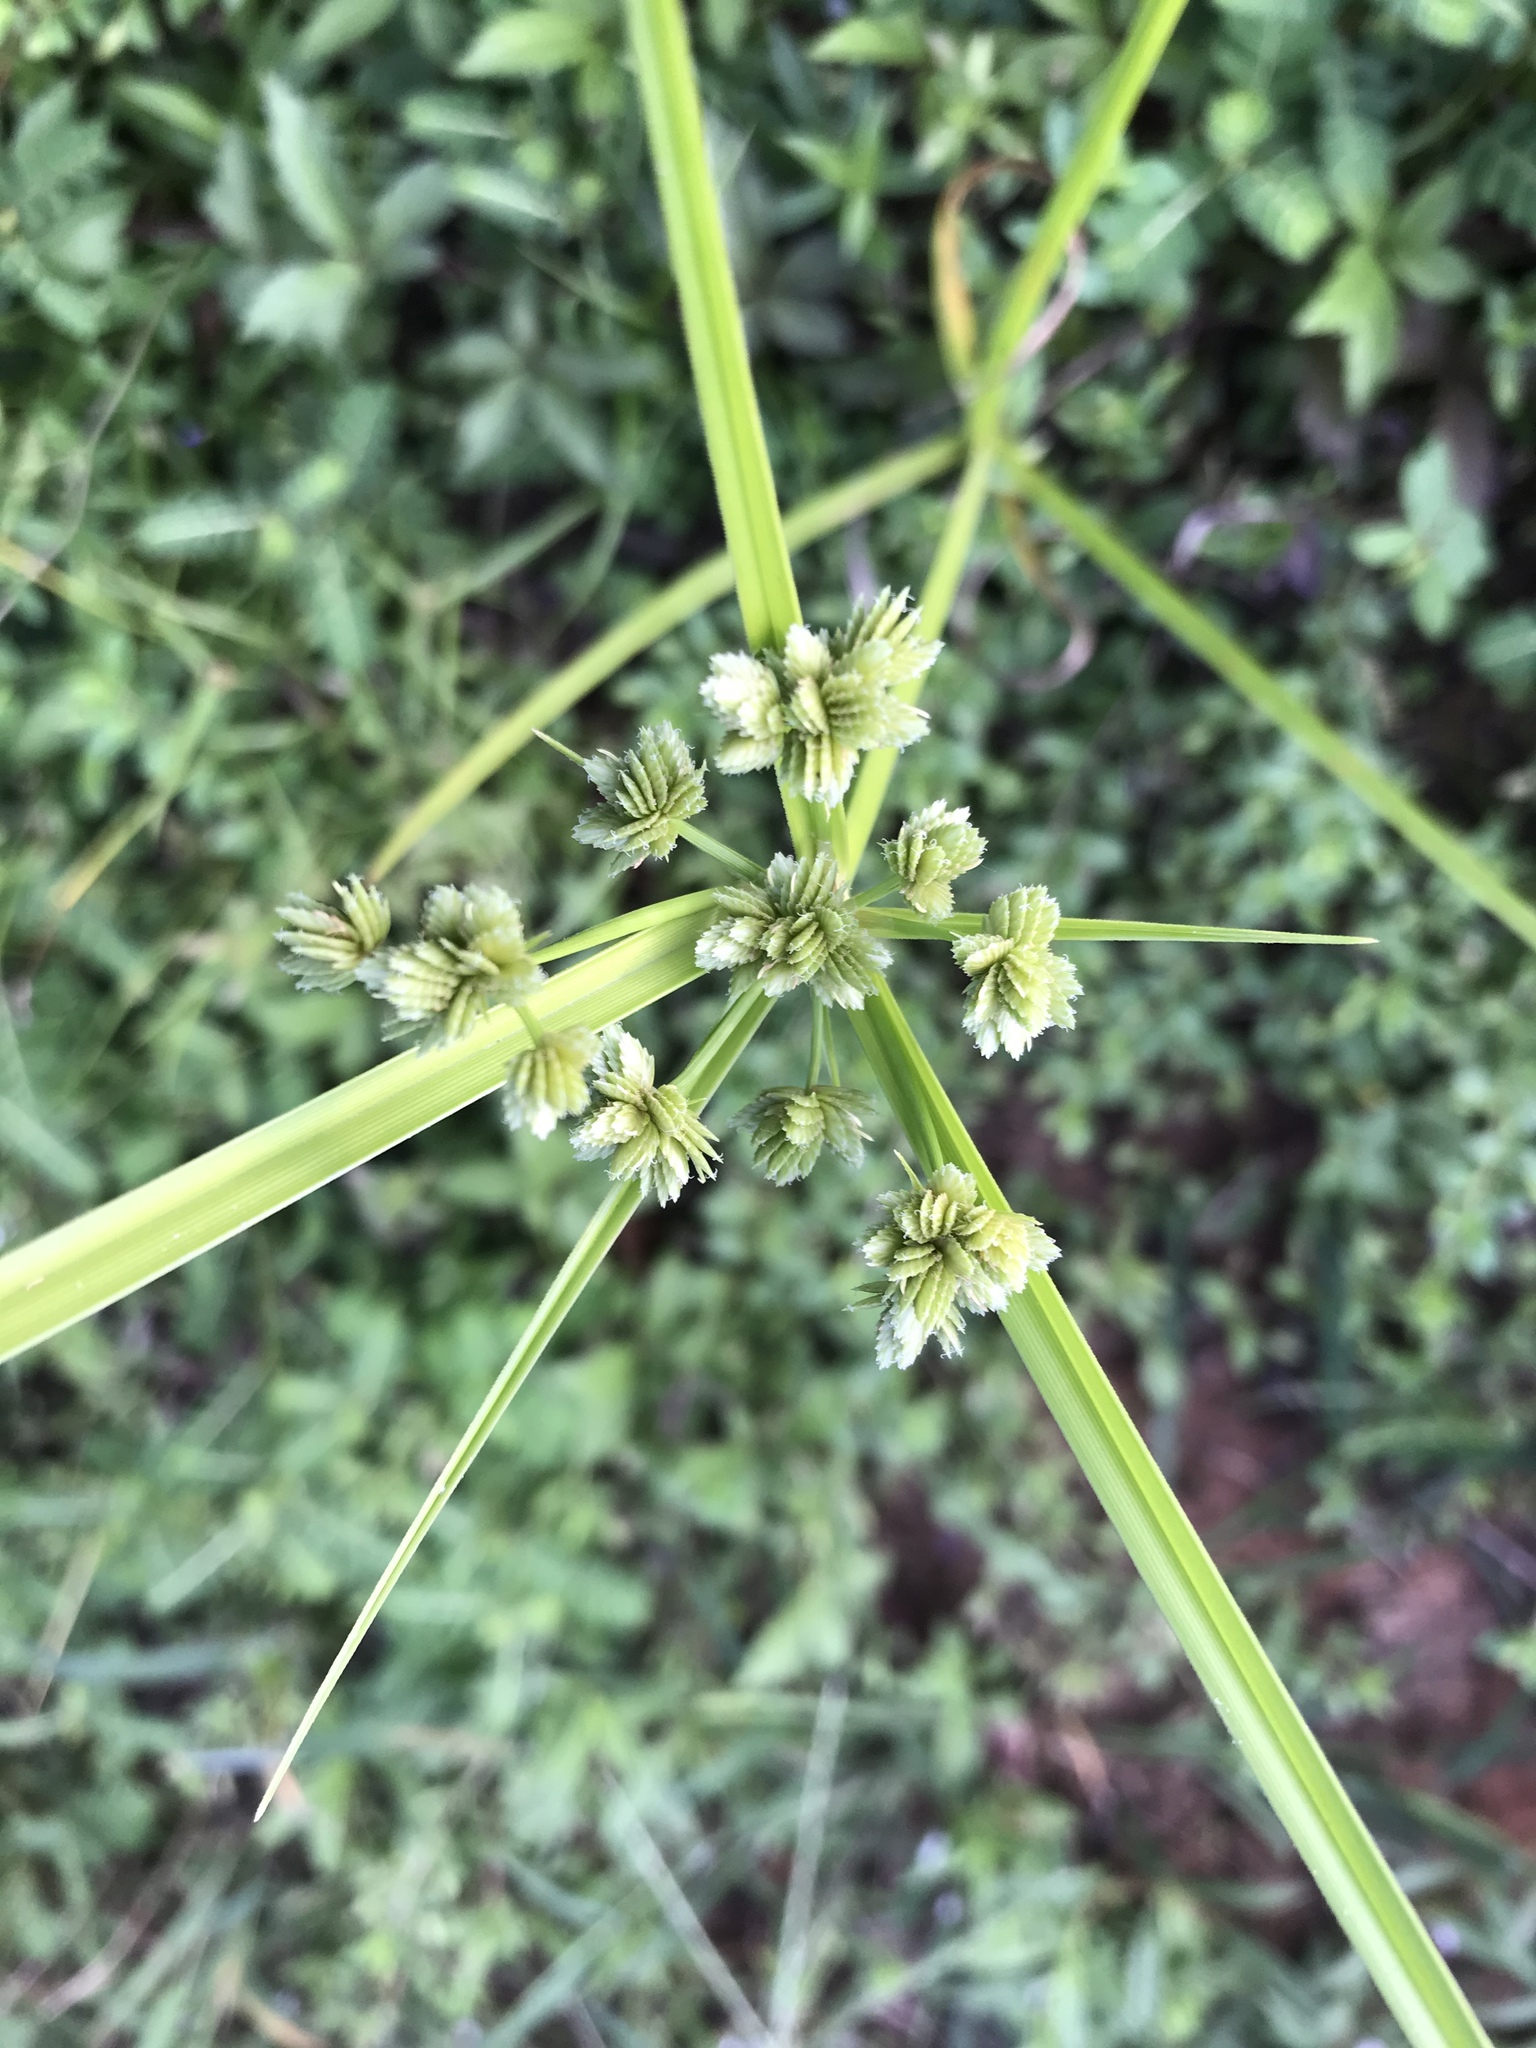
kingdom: Plantae
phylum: Tracheophyta
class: Liliopsida
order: Poales
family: Cyperaceae
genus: Cyperus
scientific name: Cyperus virens
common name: Green flatsedge
